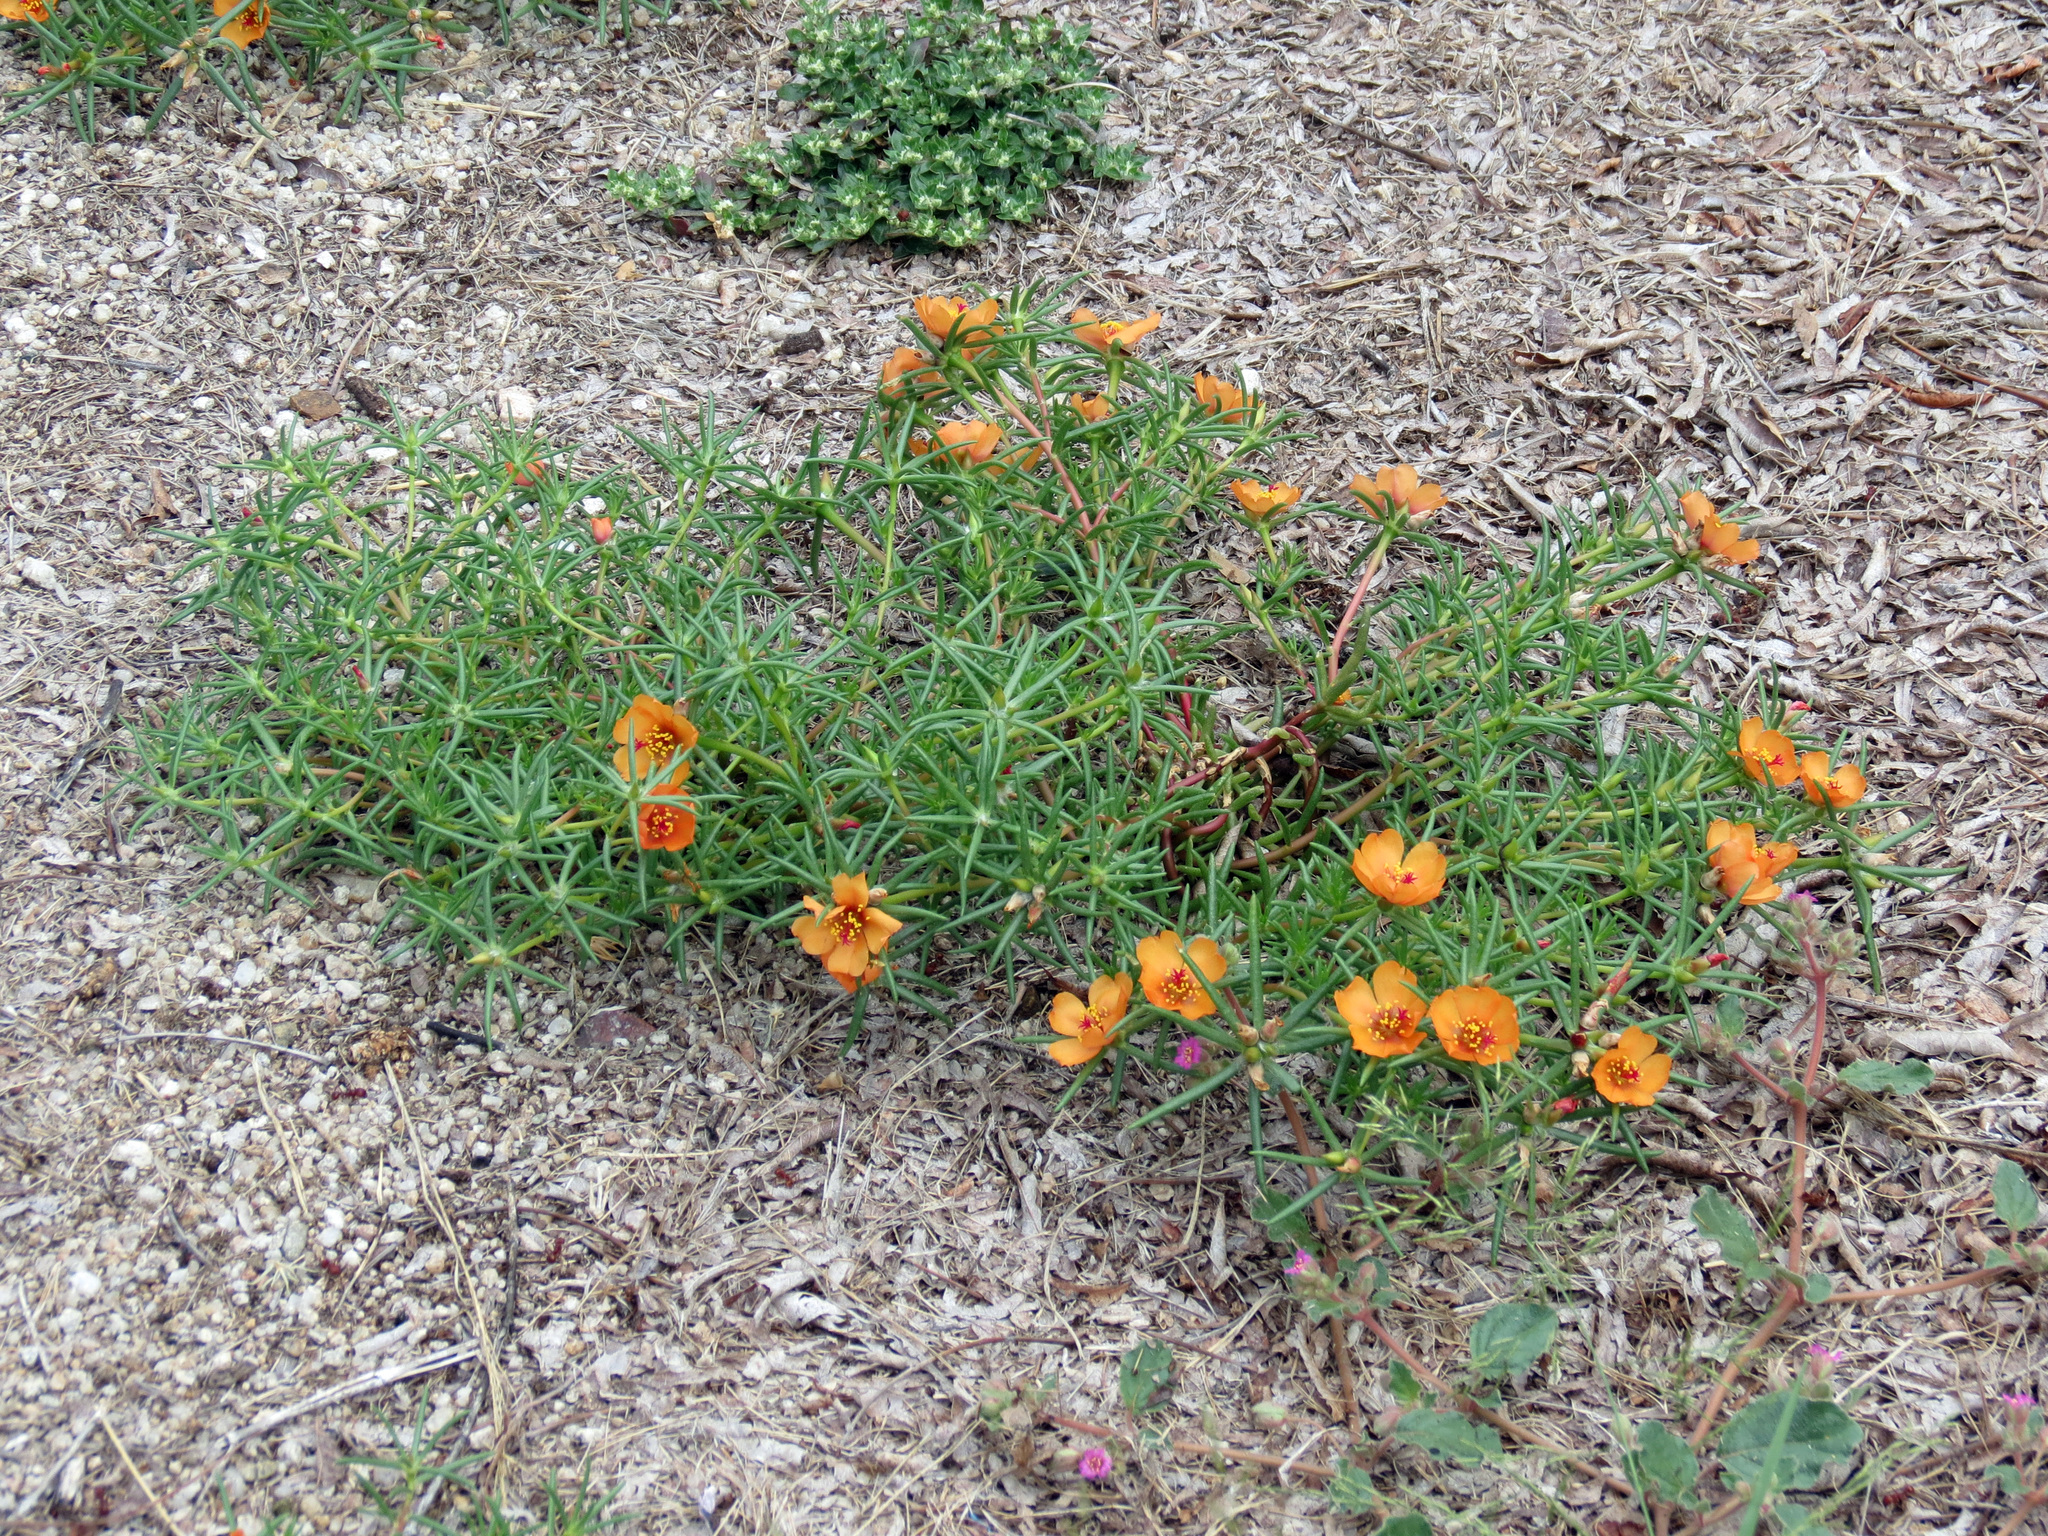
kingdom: Plantae
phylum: Tracheophyta
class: Magnoliopsida
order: Caryophyllales
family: Portulacaceae
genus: Portulaca
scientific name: Portulaca suffrutescens
